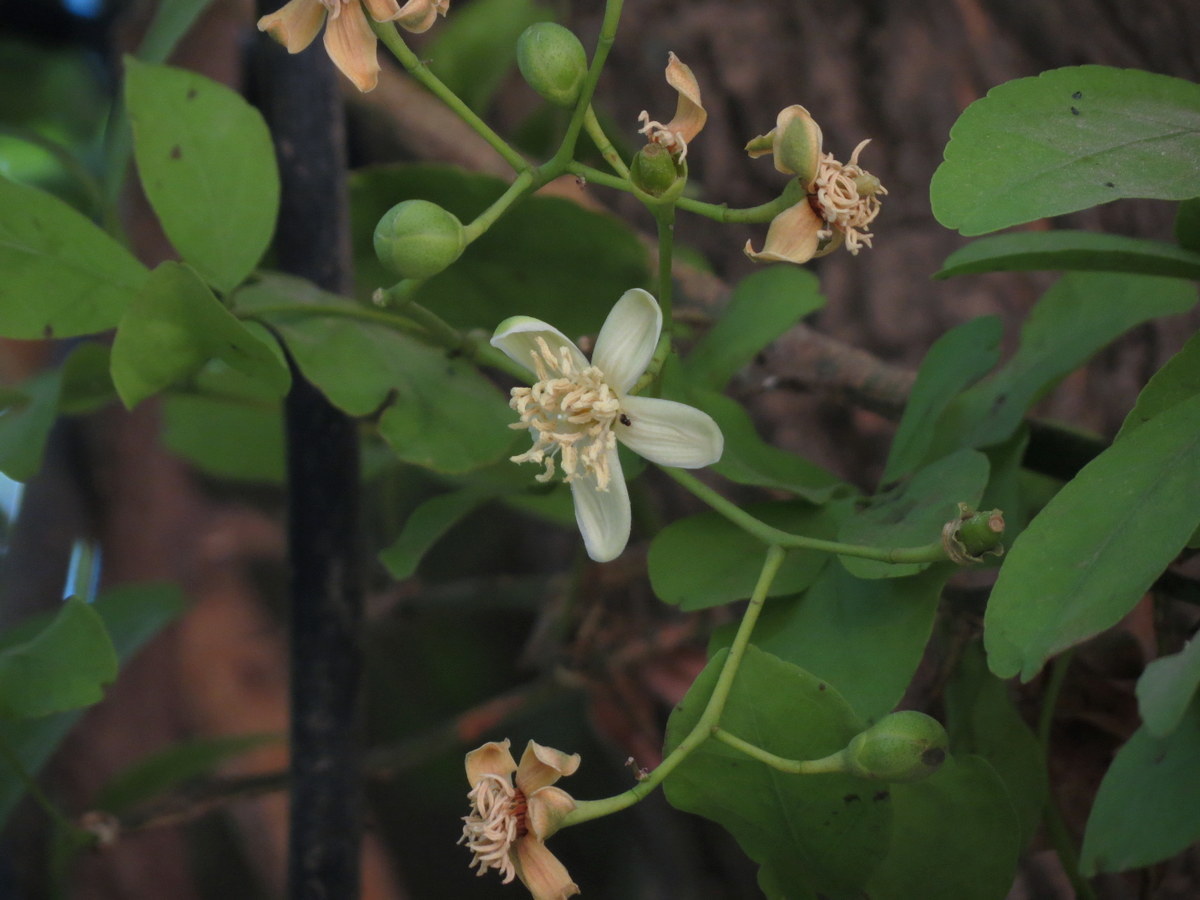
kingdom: Plantae
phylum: Tracheophyta
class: Magnoliopsida
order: Sapindales
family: Rutaceae
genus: Aegle
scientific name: Aegle marmelos
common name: Bael
